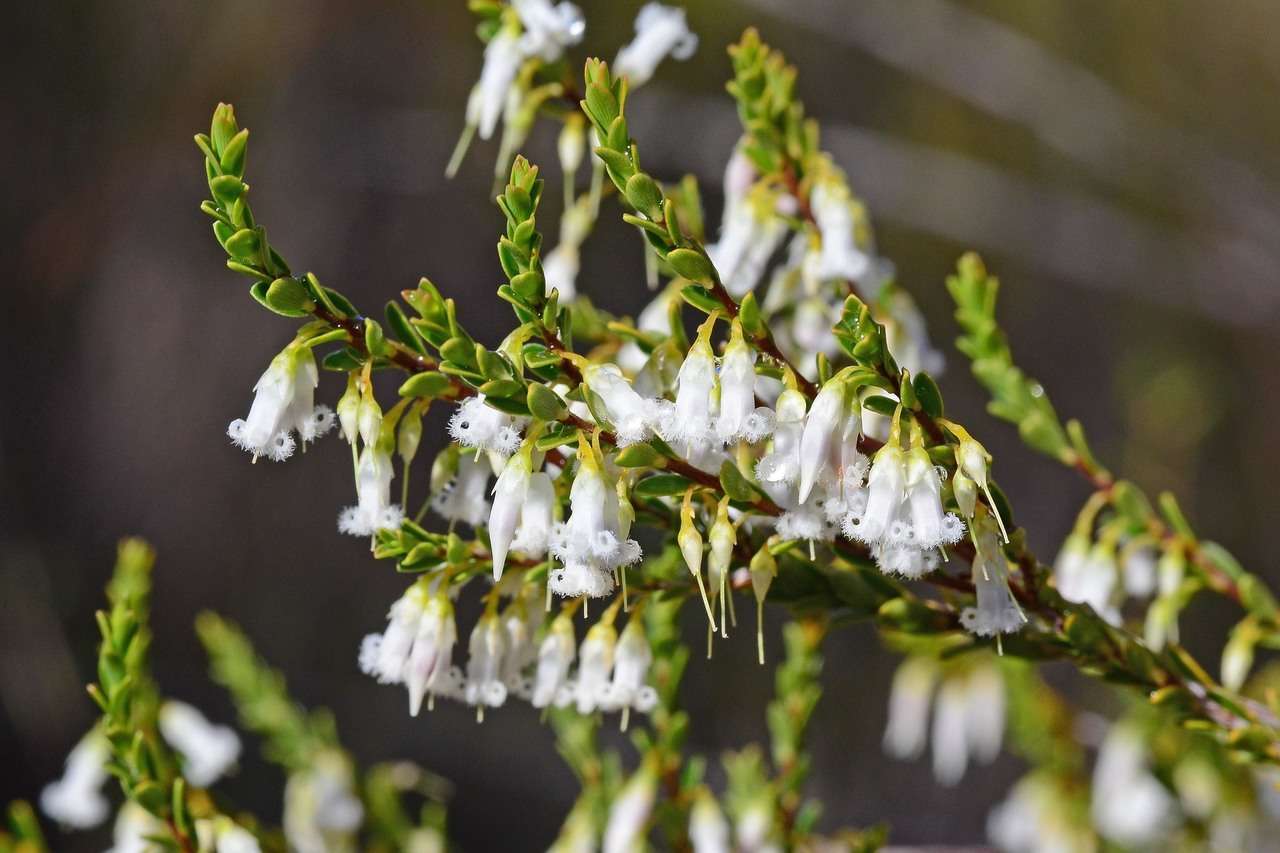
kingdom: Plantae
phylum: Tracheophyta
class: Magnoliopsida
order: Ericales
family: Ericaceae
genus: Styphelia
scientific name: Styphelia woodsii
